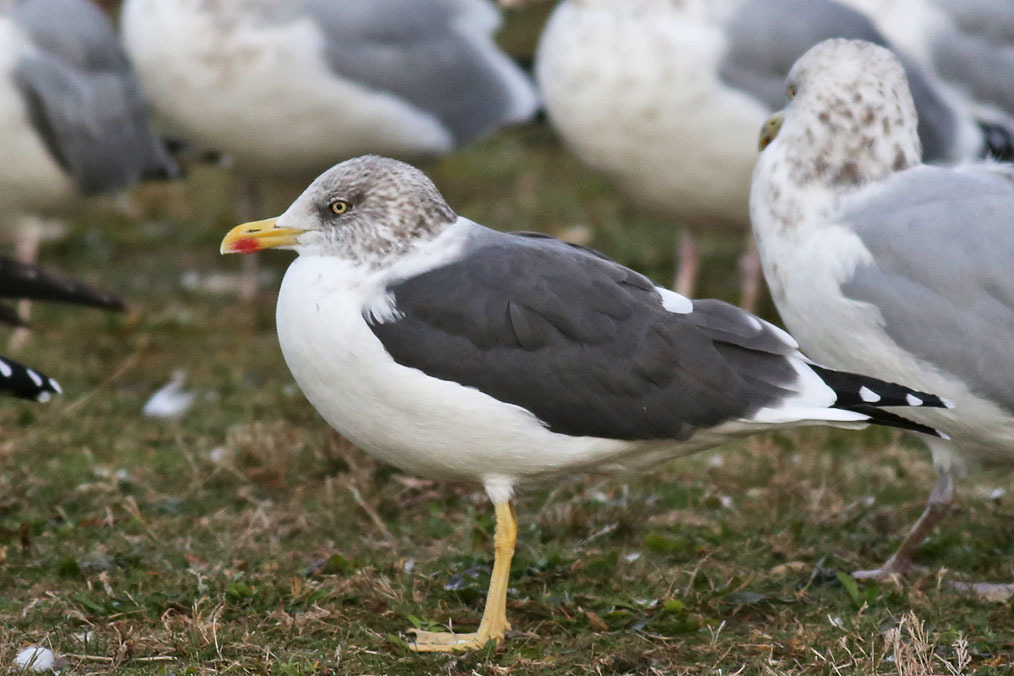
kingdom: Animalia
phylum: Chordata
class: Aves
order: Charadriiformes
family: Laridae
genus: Larus
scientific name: Larus fuscus
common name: Lesser black-backed gull
